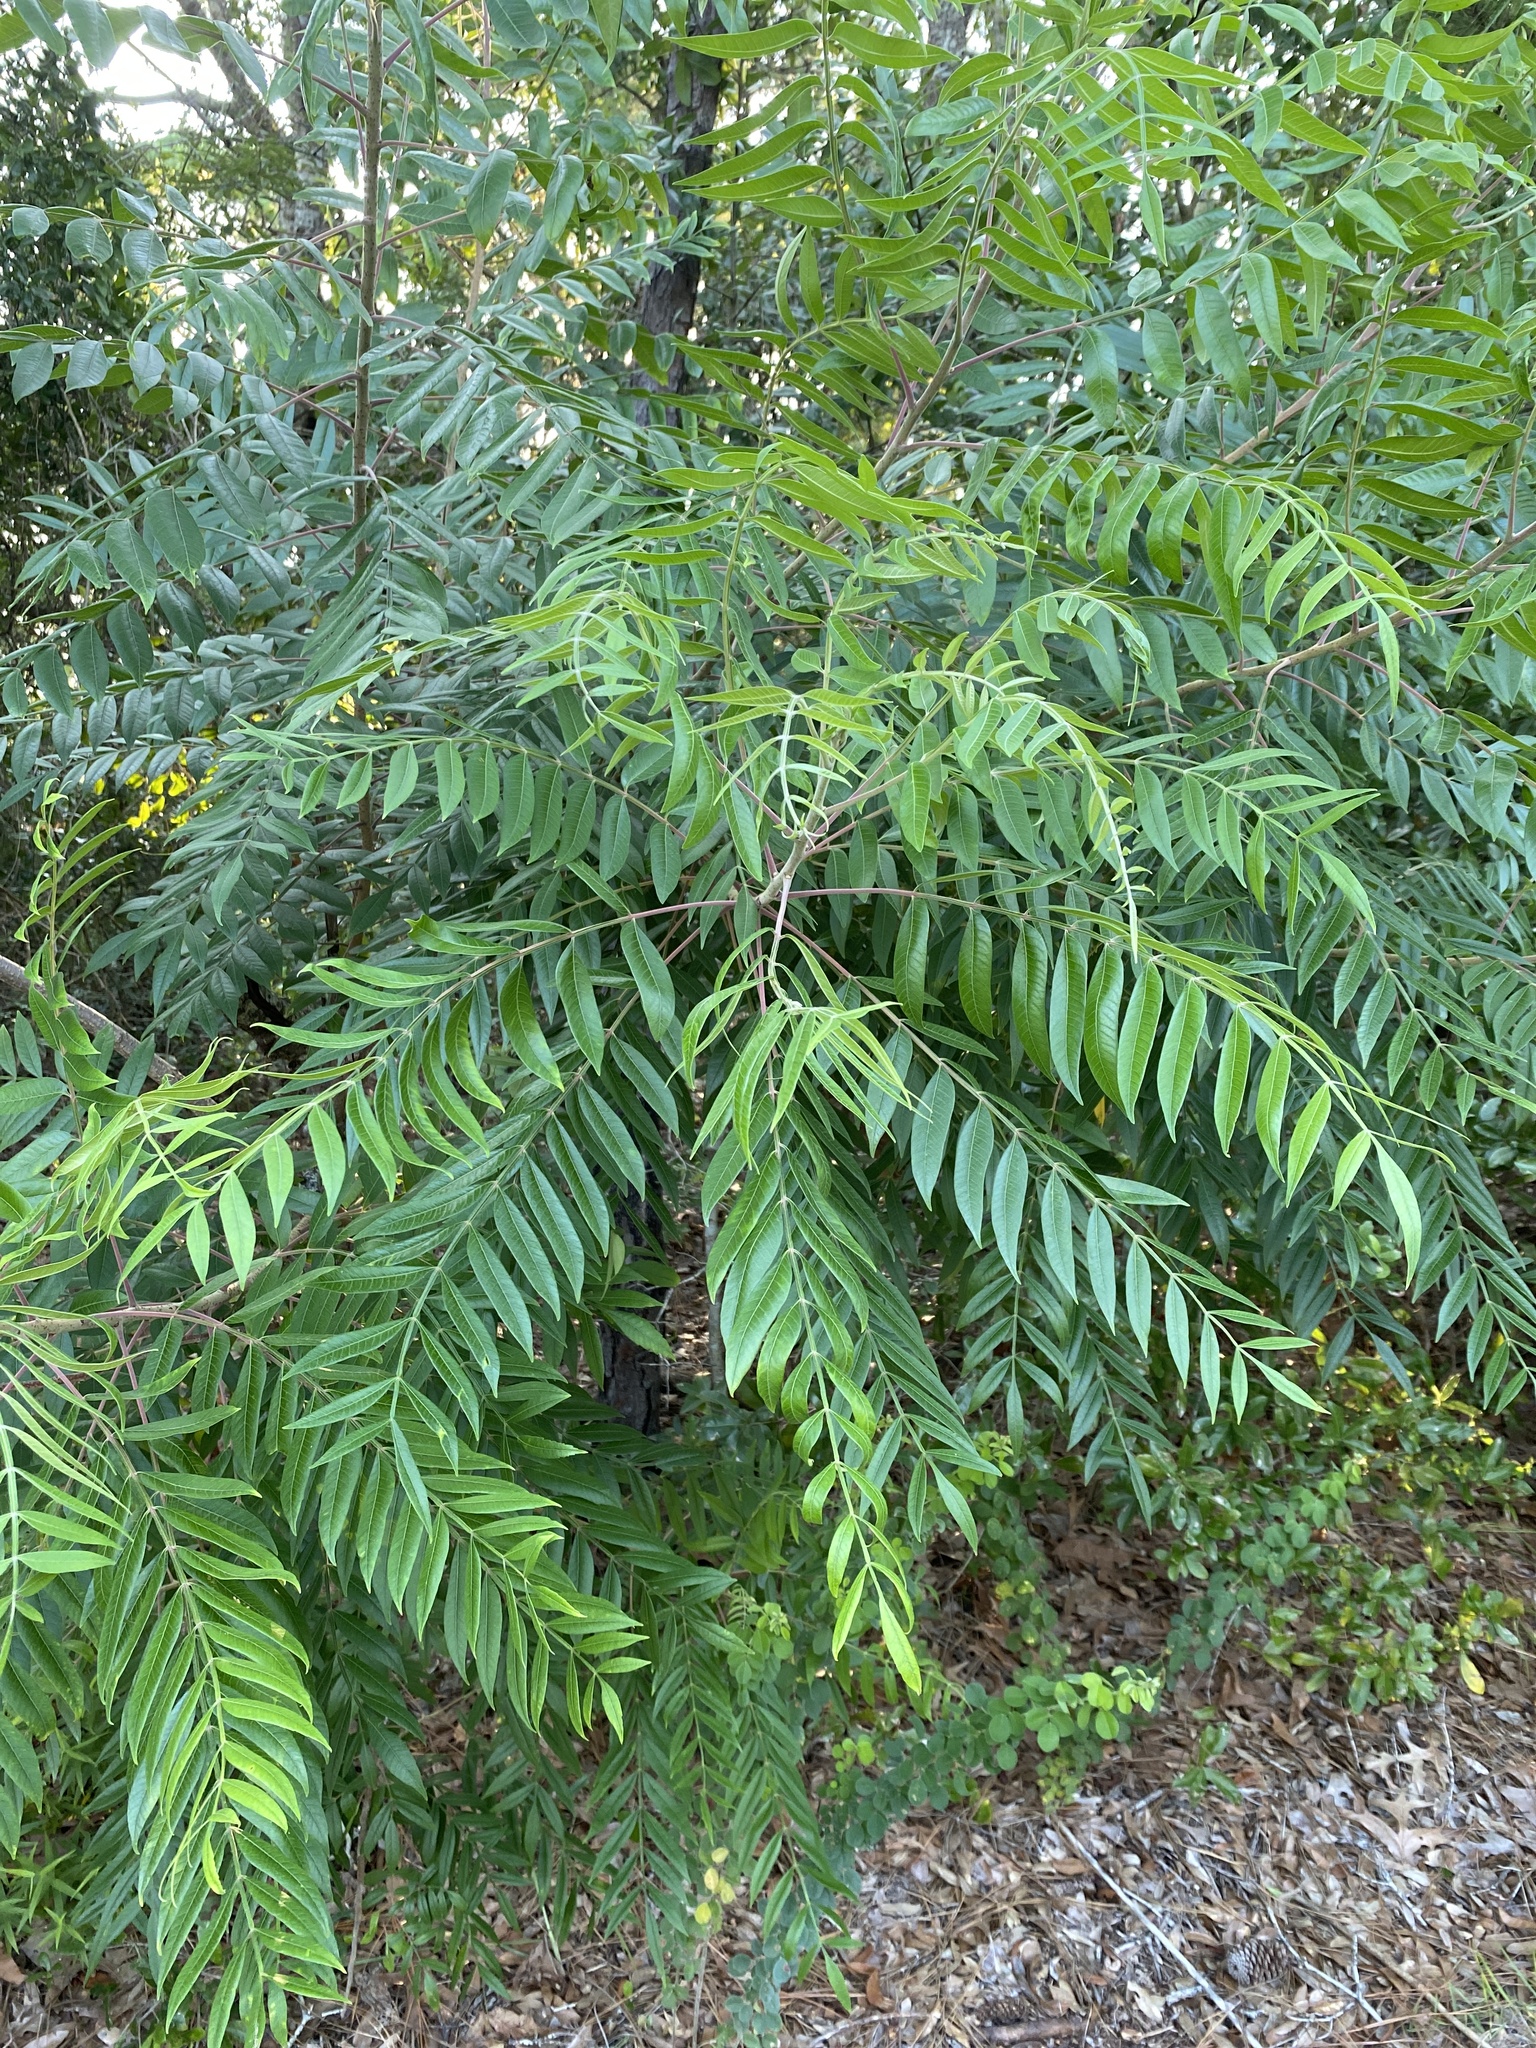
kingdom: Plantae
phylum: Tracheophyta
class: Magnoliopsida
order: Sapindales
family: Anacardiaceae
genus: Rhus
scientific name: Rhus copallina
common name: Shining sumac
